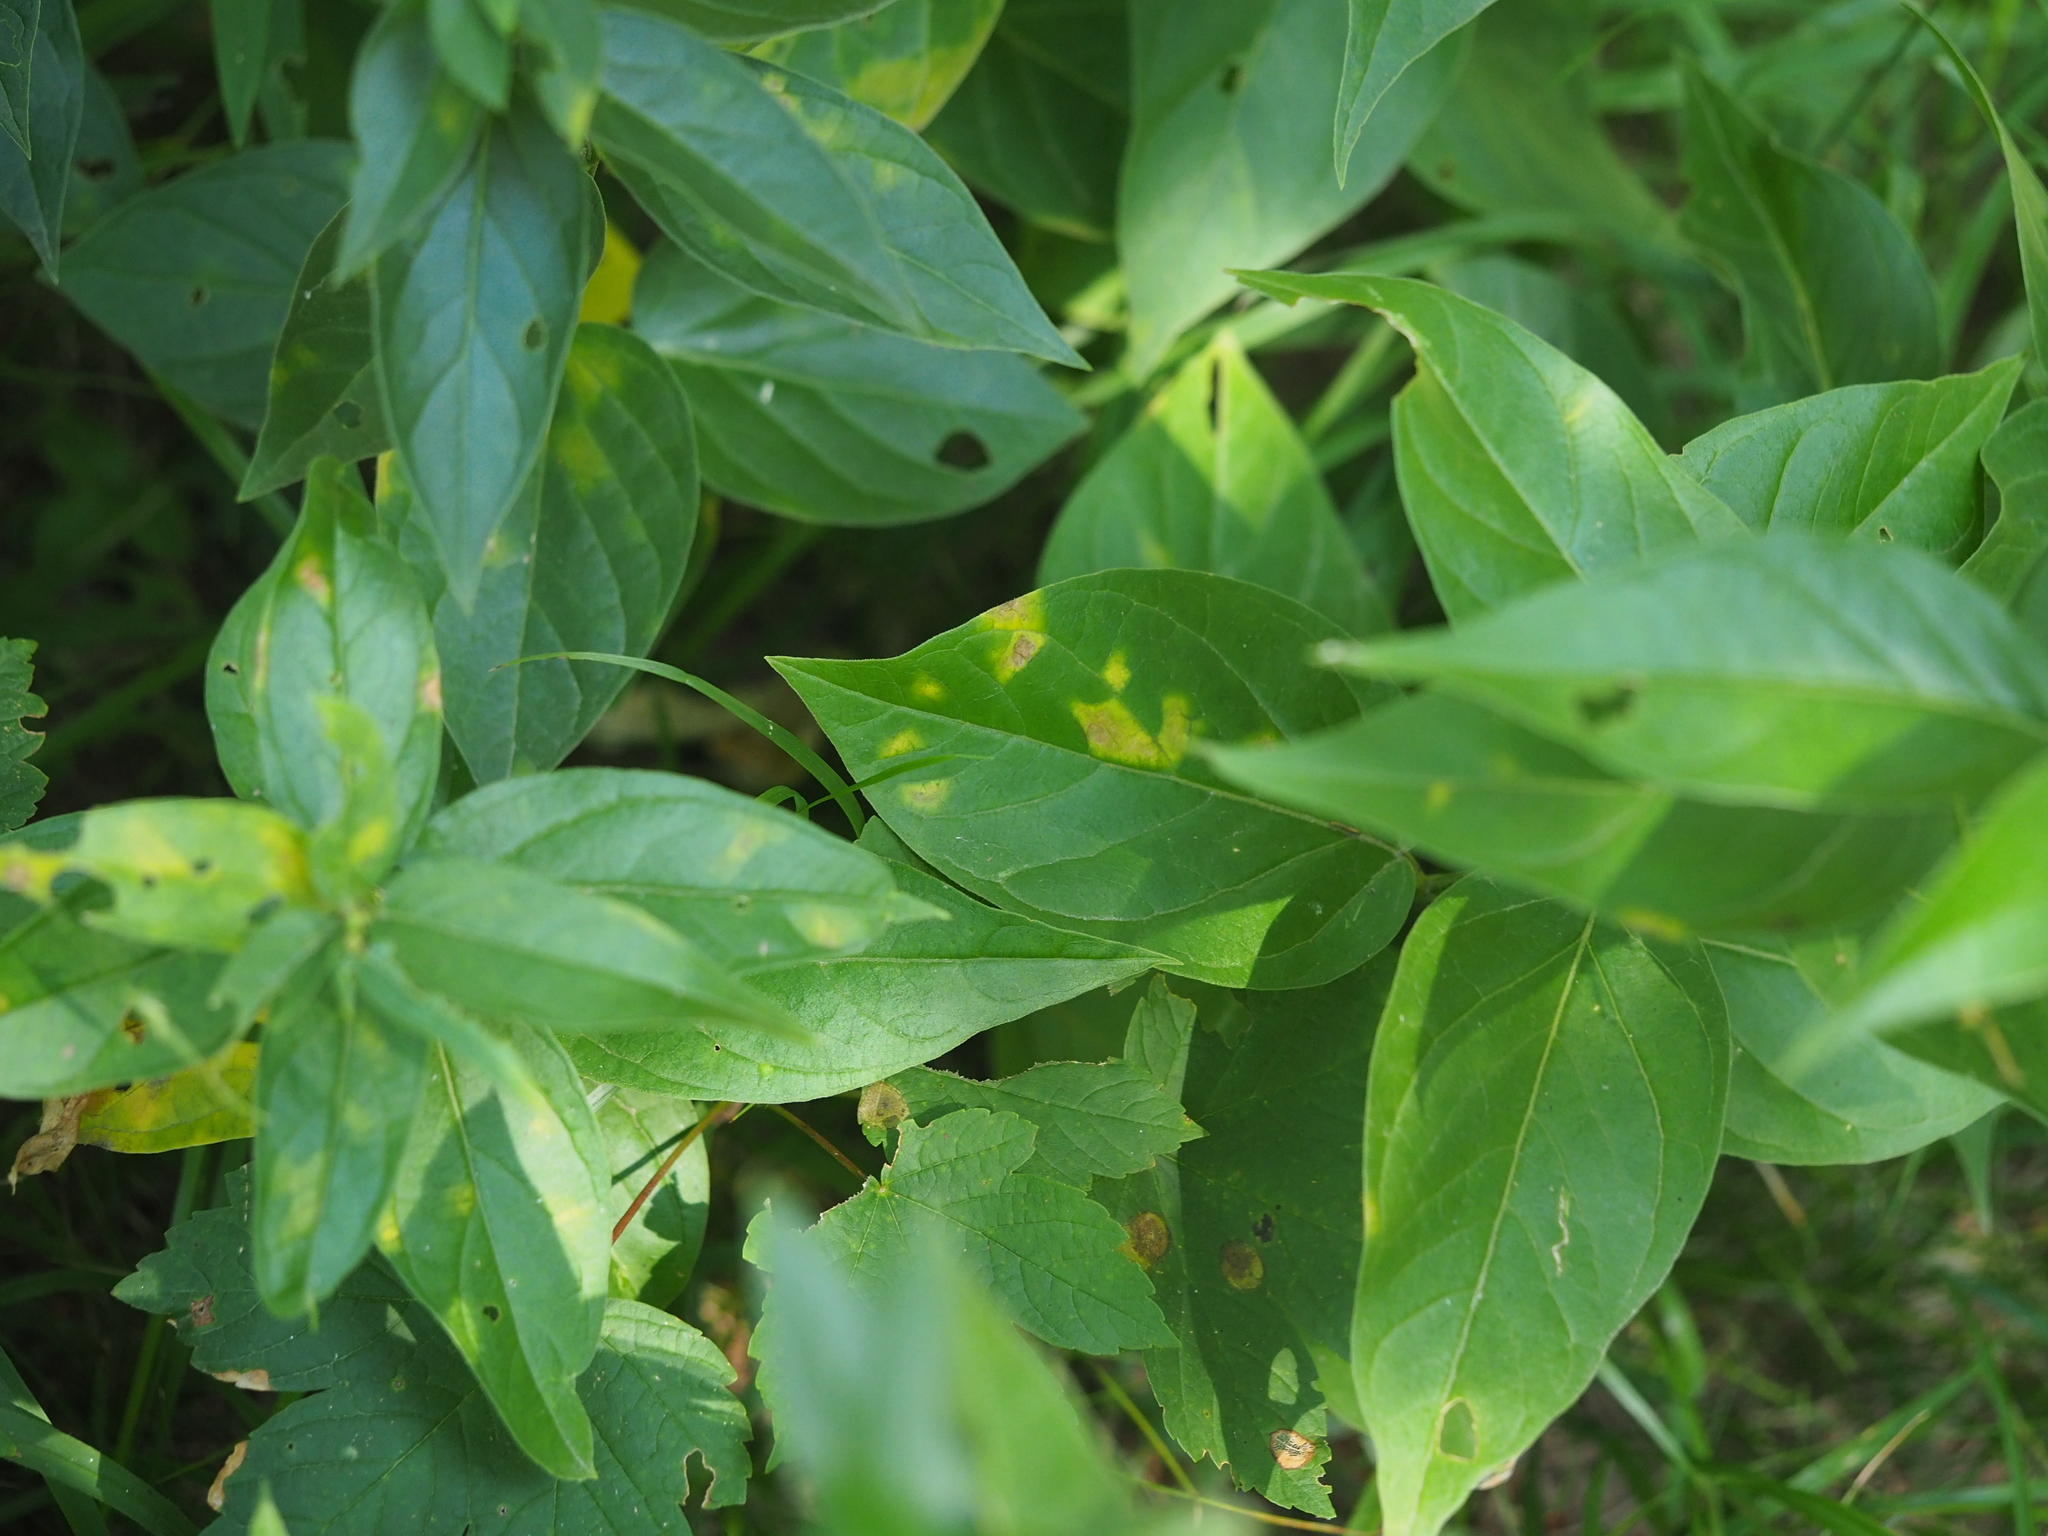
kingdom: Fungi
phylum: Basidiomycota
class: Pucciniomycetes
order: Pucciniales
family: Cronartiaceae
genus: Cronartium
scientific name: Cronartium pini
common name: Scots pine blister rust
